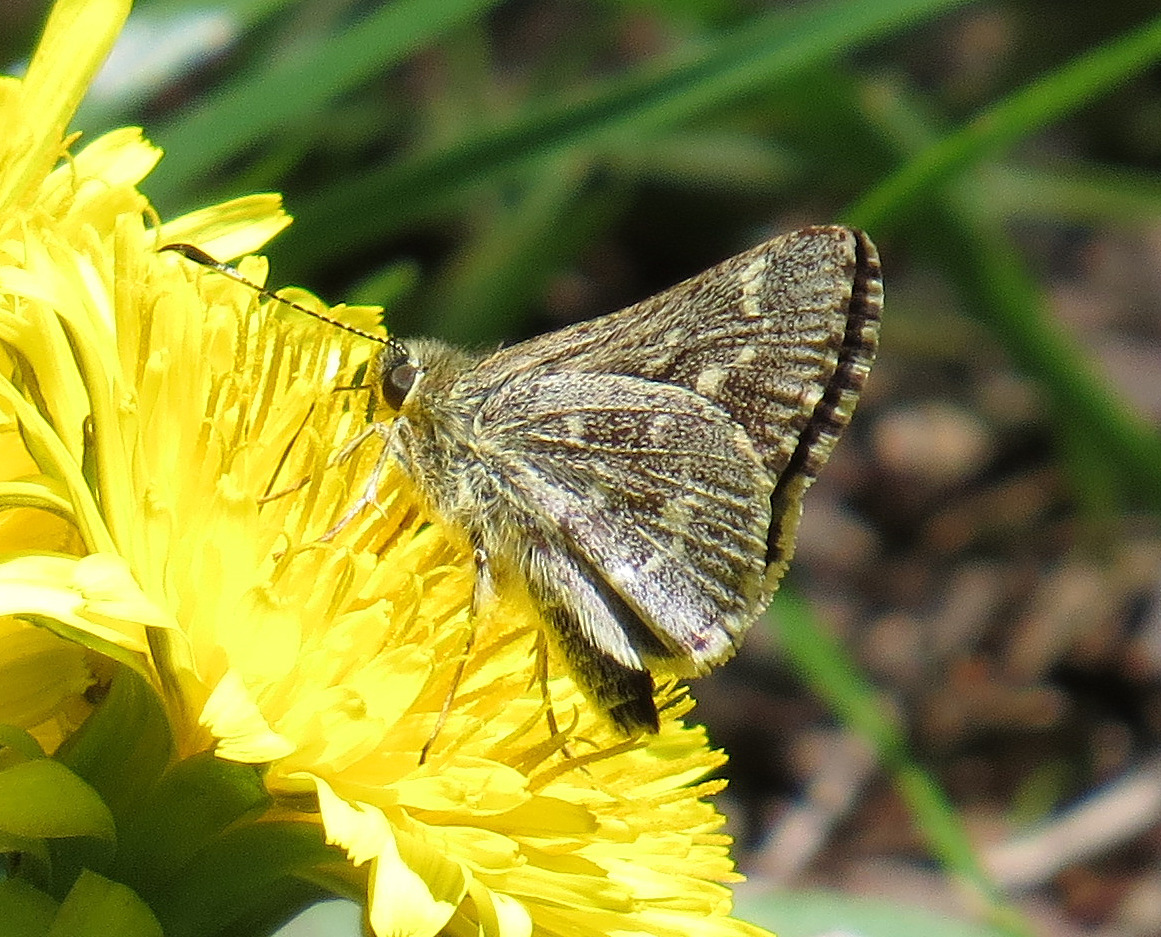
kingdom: Animalia
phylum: Arthropoda
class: Insecta
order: Lepidoptera
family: Hesperiidae
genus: Mastor
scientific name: Mastor hegon
